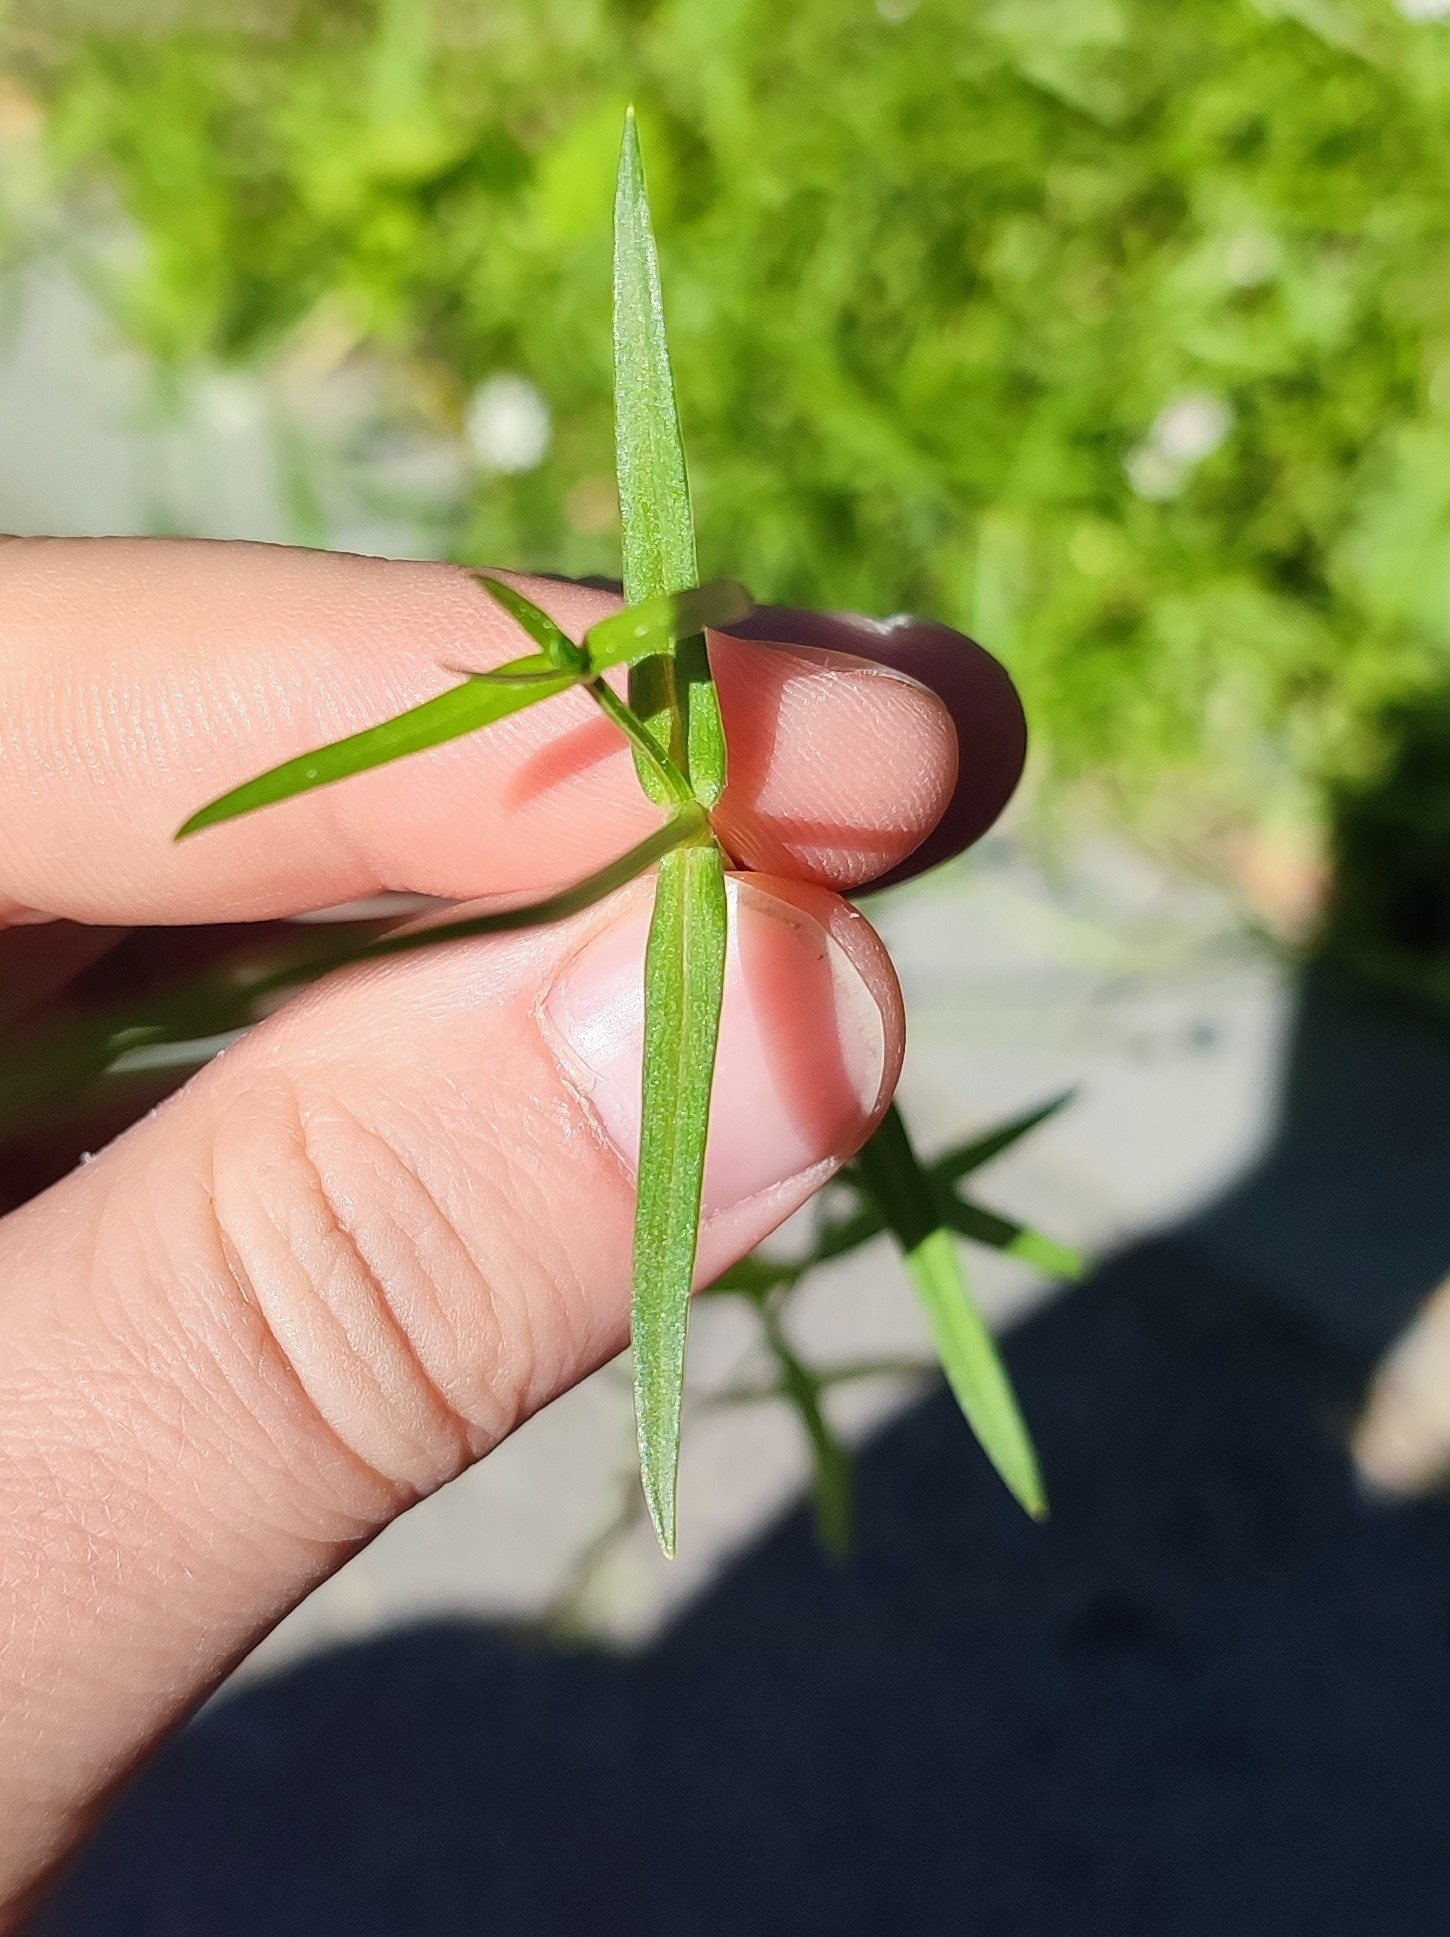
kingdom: Plantae
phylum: Tracheophyta
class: Magnoliopsida
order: Caryophyllales
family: Caryophyllaceae
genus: Stellaria
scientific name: Stellaria graminea
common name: Grass-like starwort
